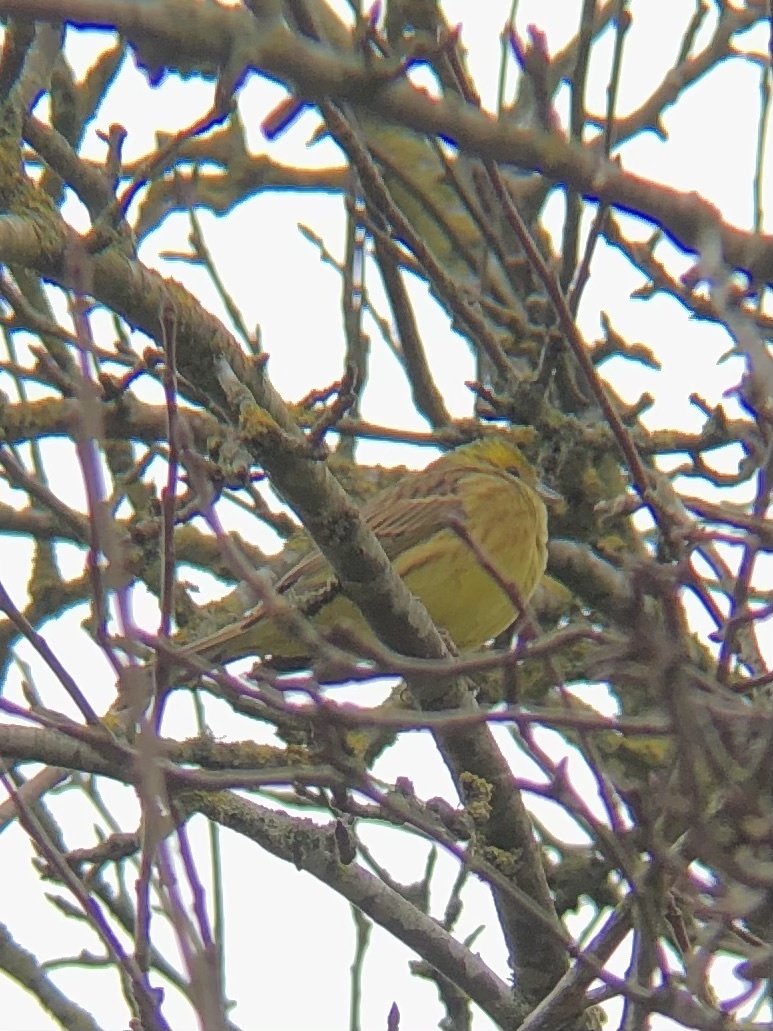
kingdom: Animalia
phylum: Chordata
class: Aves
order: Passeriformes
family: Emberizidae
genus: Emberiza
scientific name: Emberiza citrinella
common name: Yellowhammer
